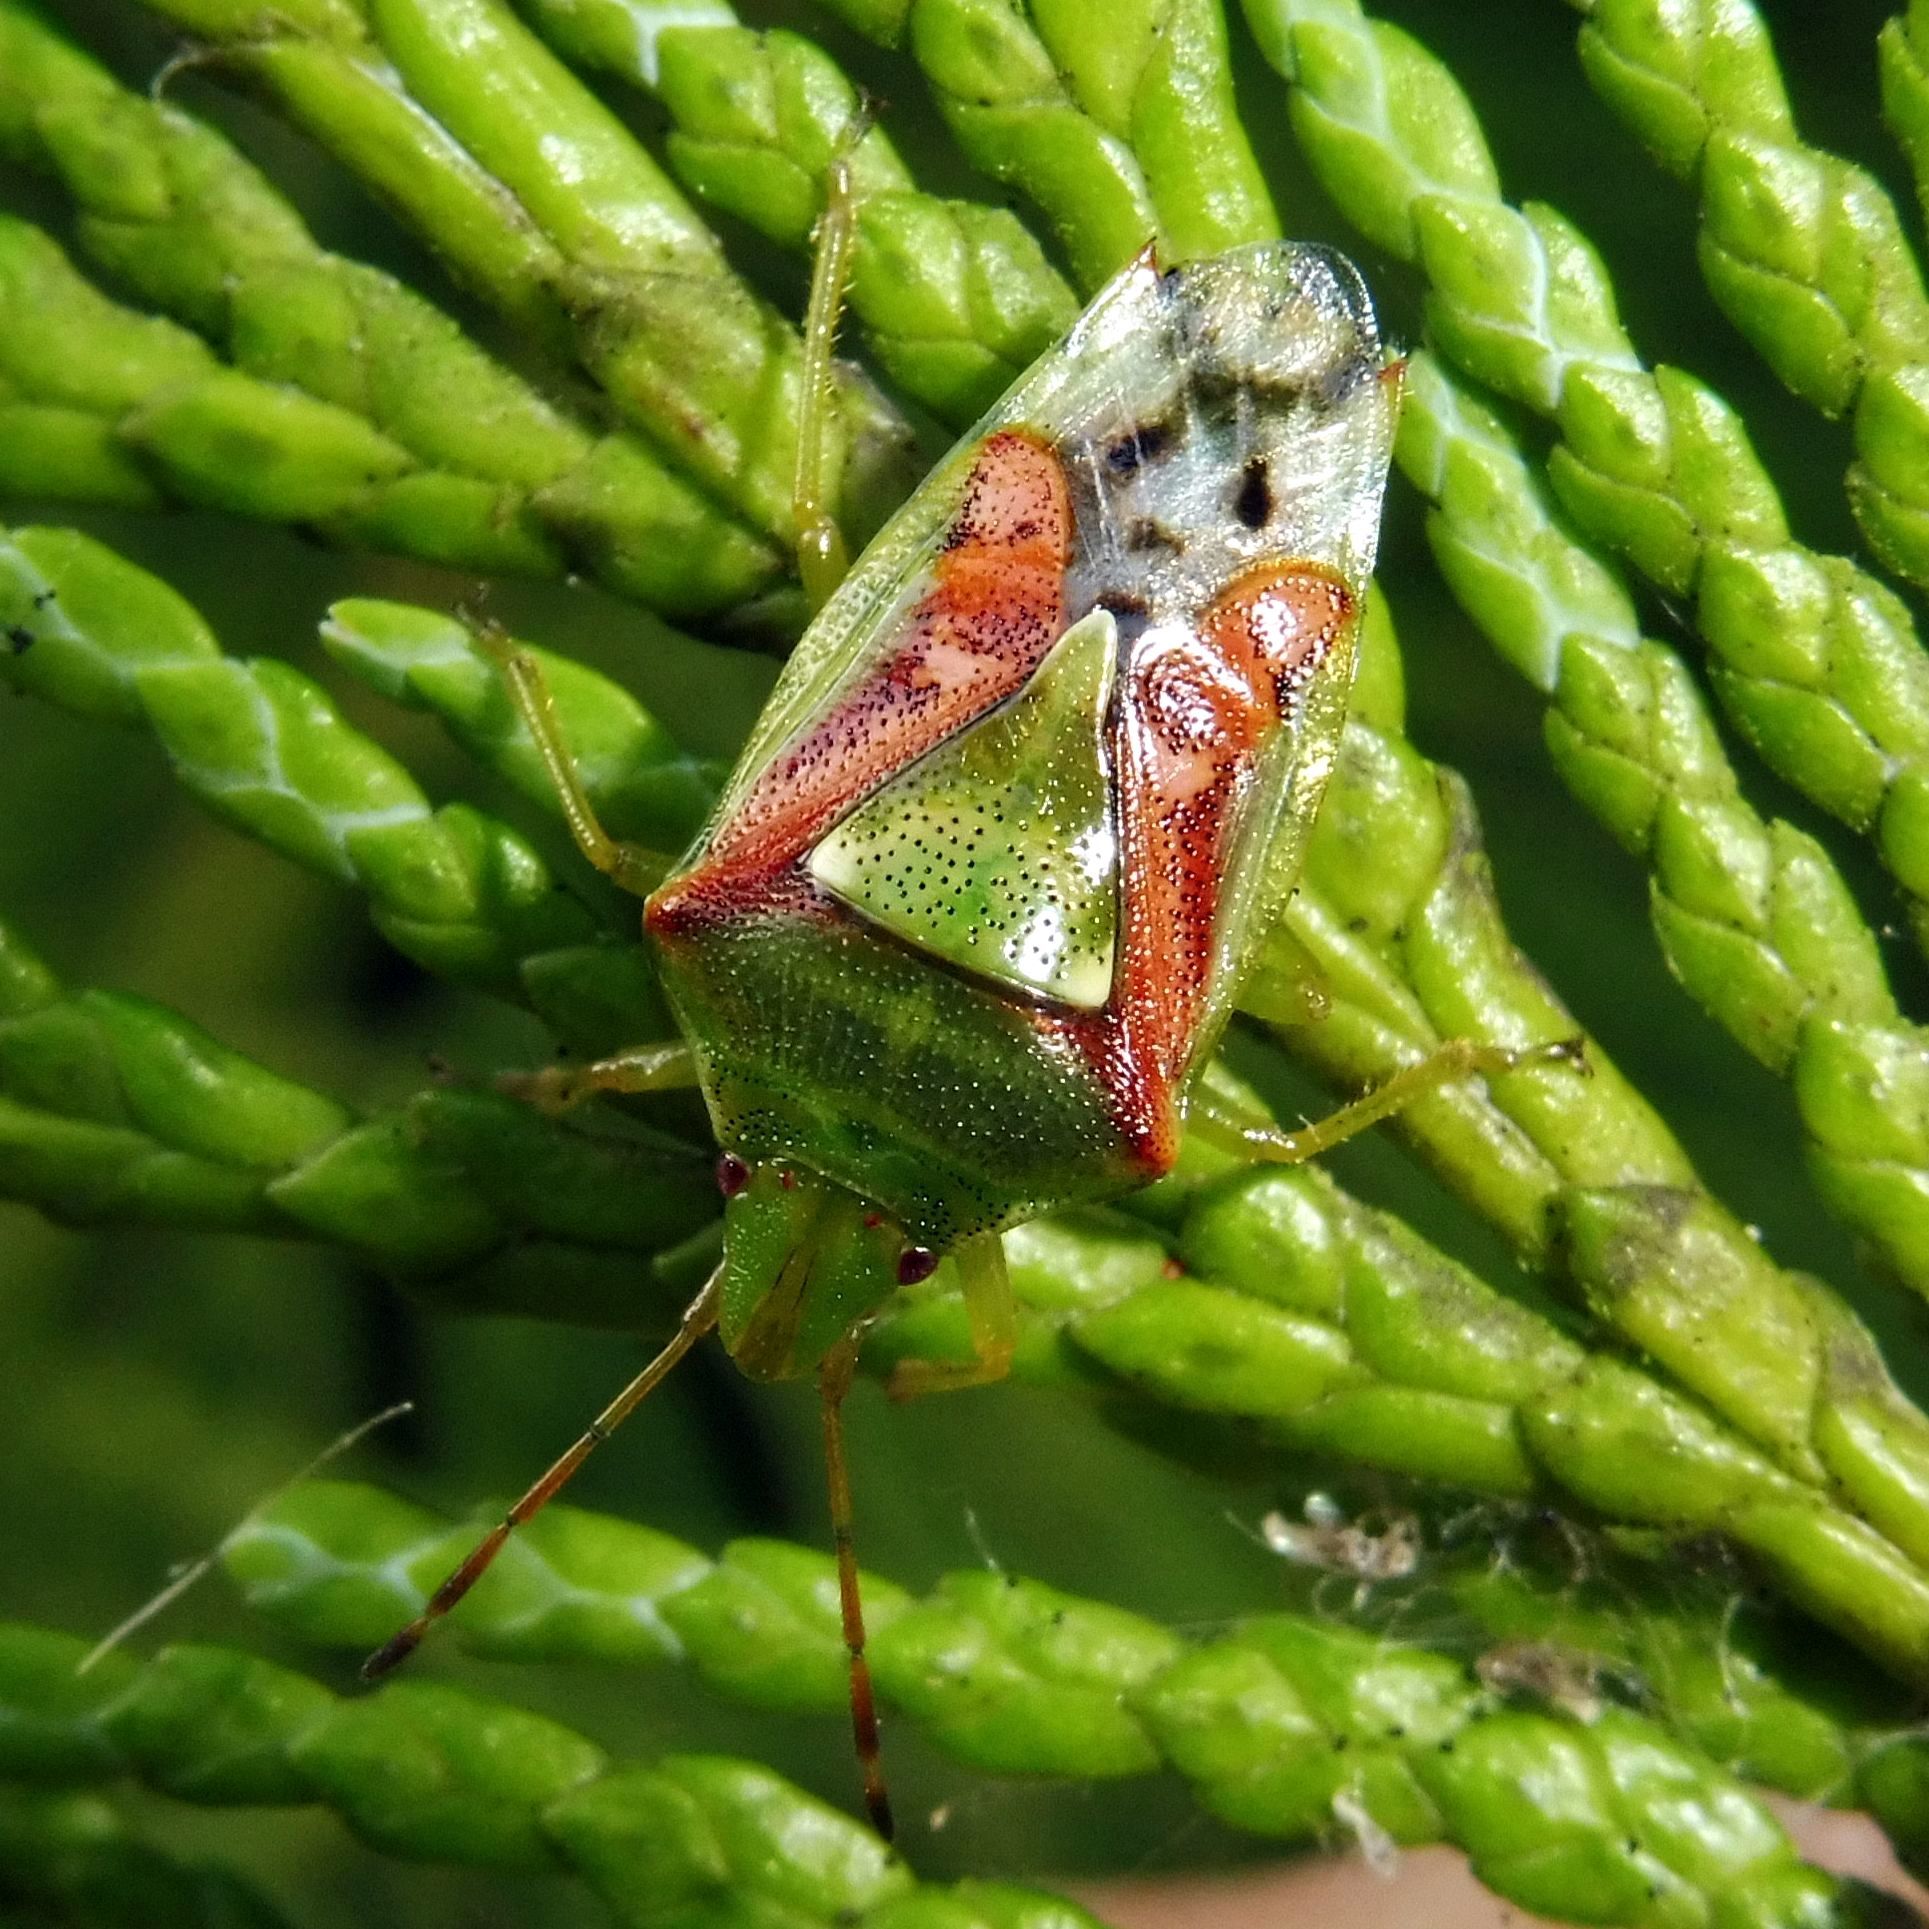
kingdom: Animalia
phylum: Arthropoda
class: Insecta
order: Hemiptera
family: Acanthosomatidae
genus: Cyphostethus
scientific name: Cyphostethus tristriatus
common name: Juniper shieldbug
